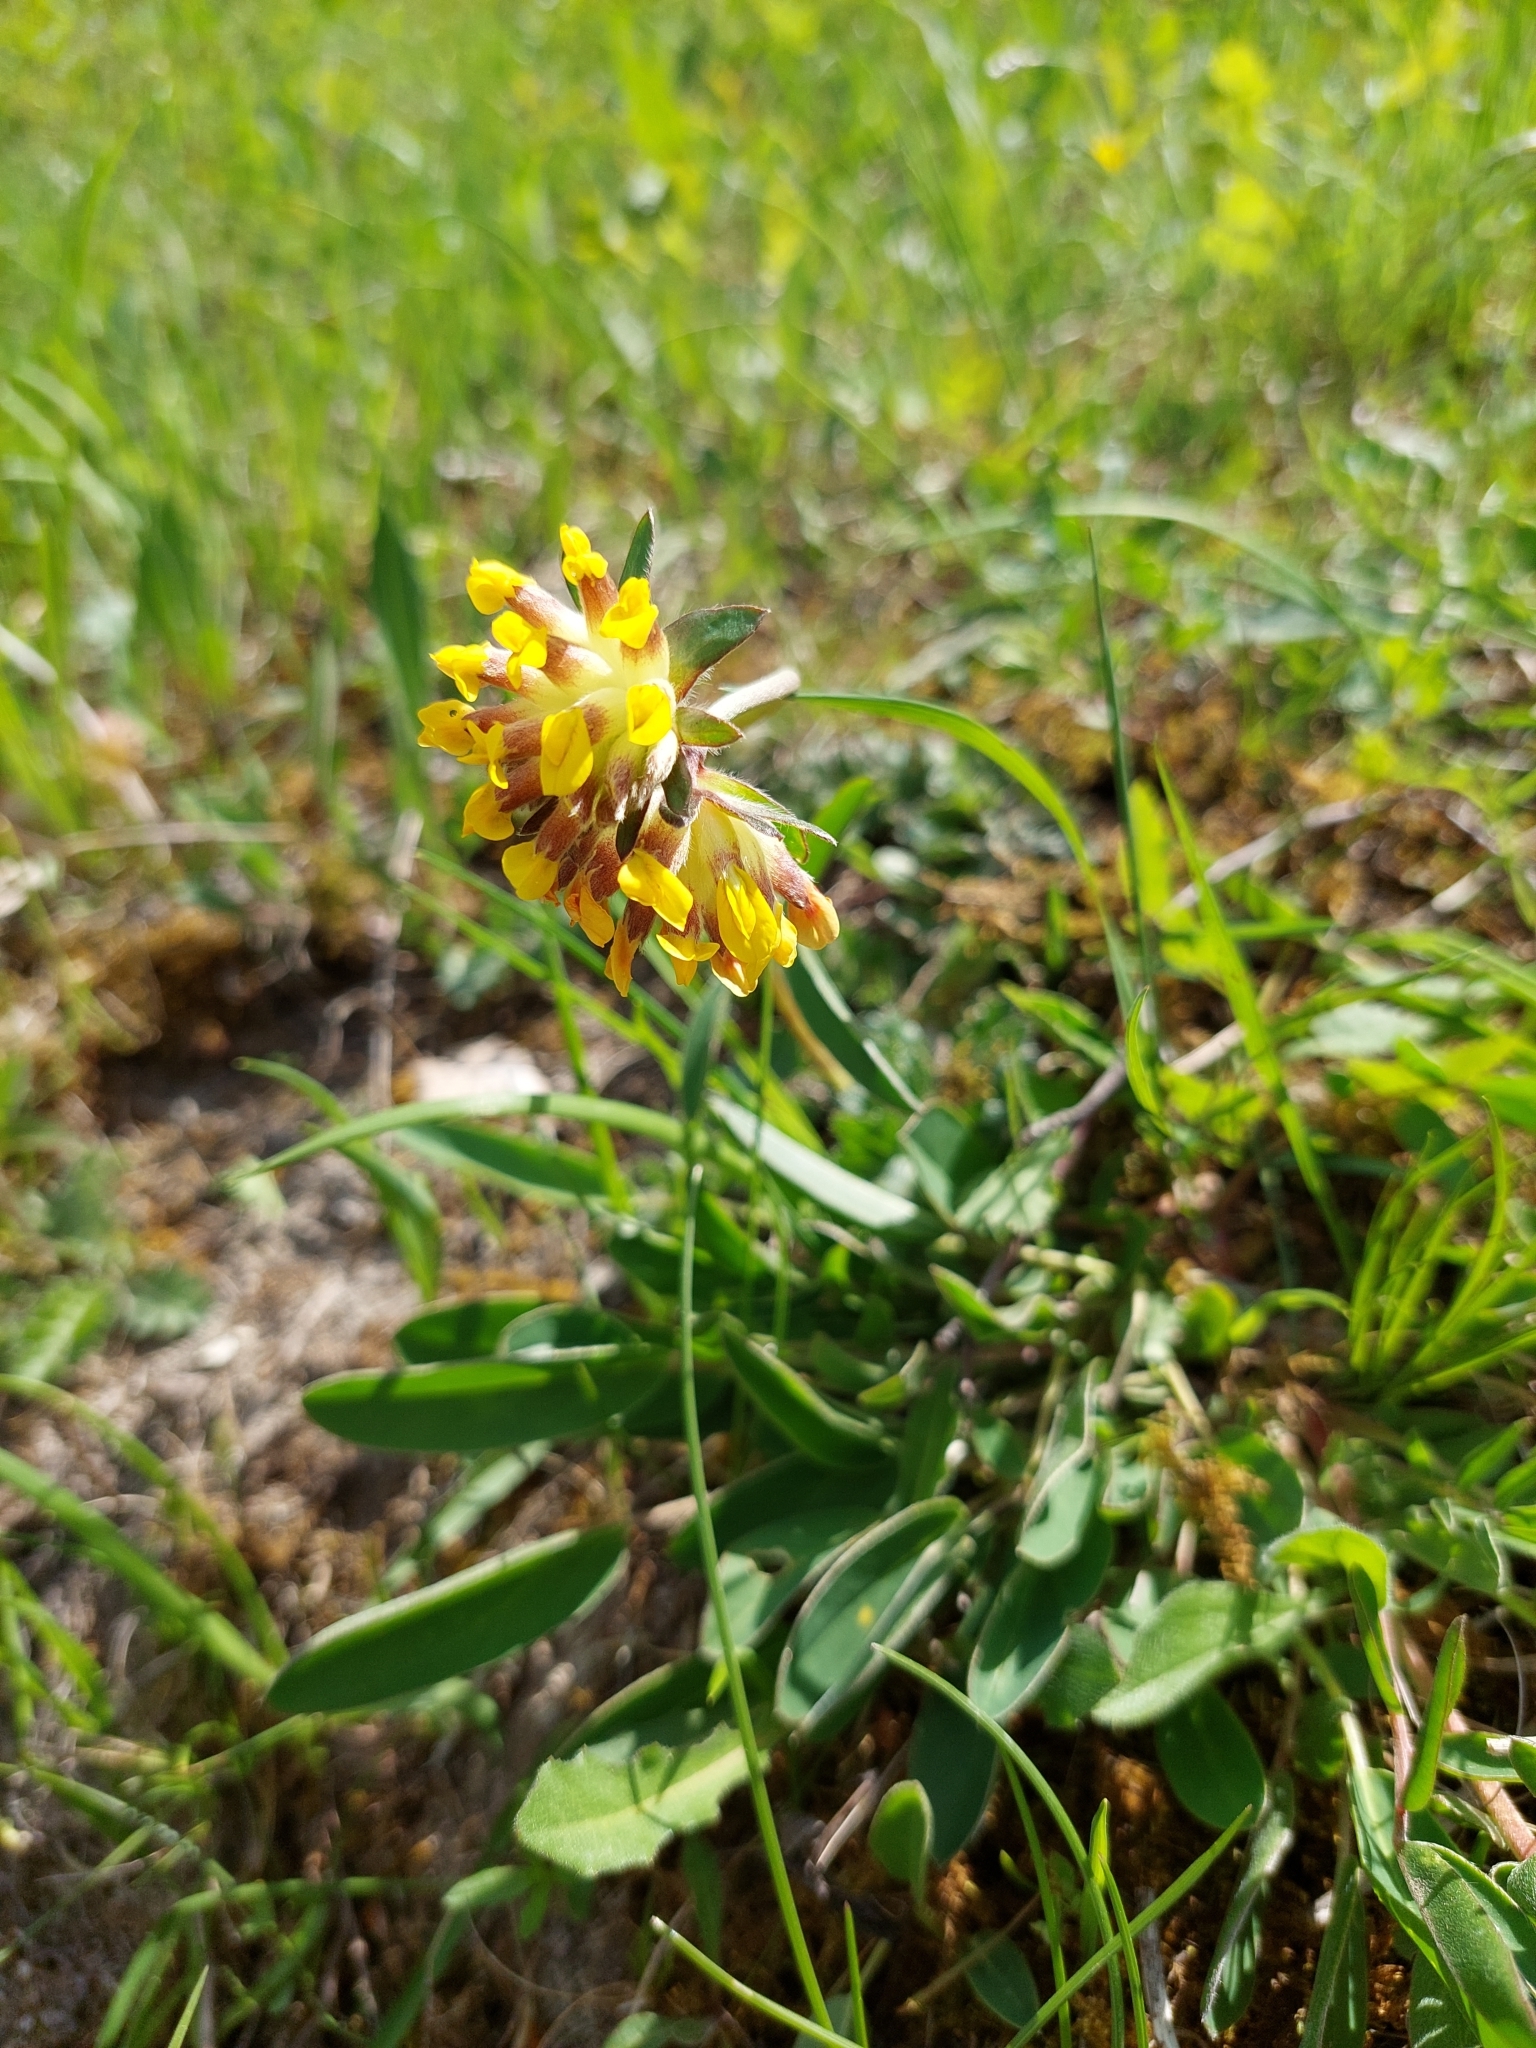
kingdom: Plantae
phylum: Tracheophyta
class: Magnoliopsida
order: Fabales
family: Fabaceae
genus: Anthyllis
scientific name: Anthyllis vulneraria
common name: Kidney vetch
